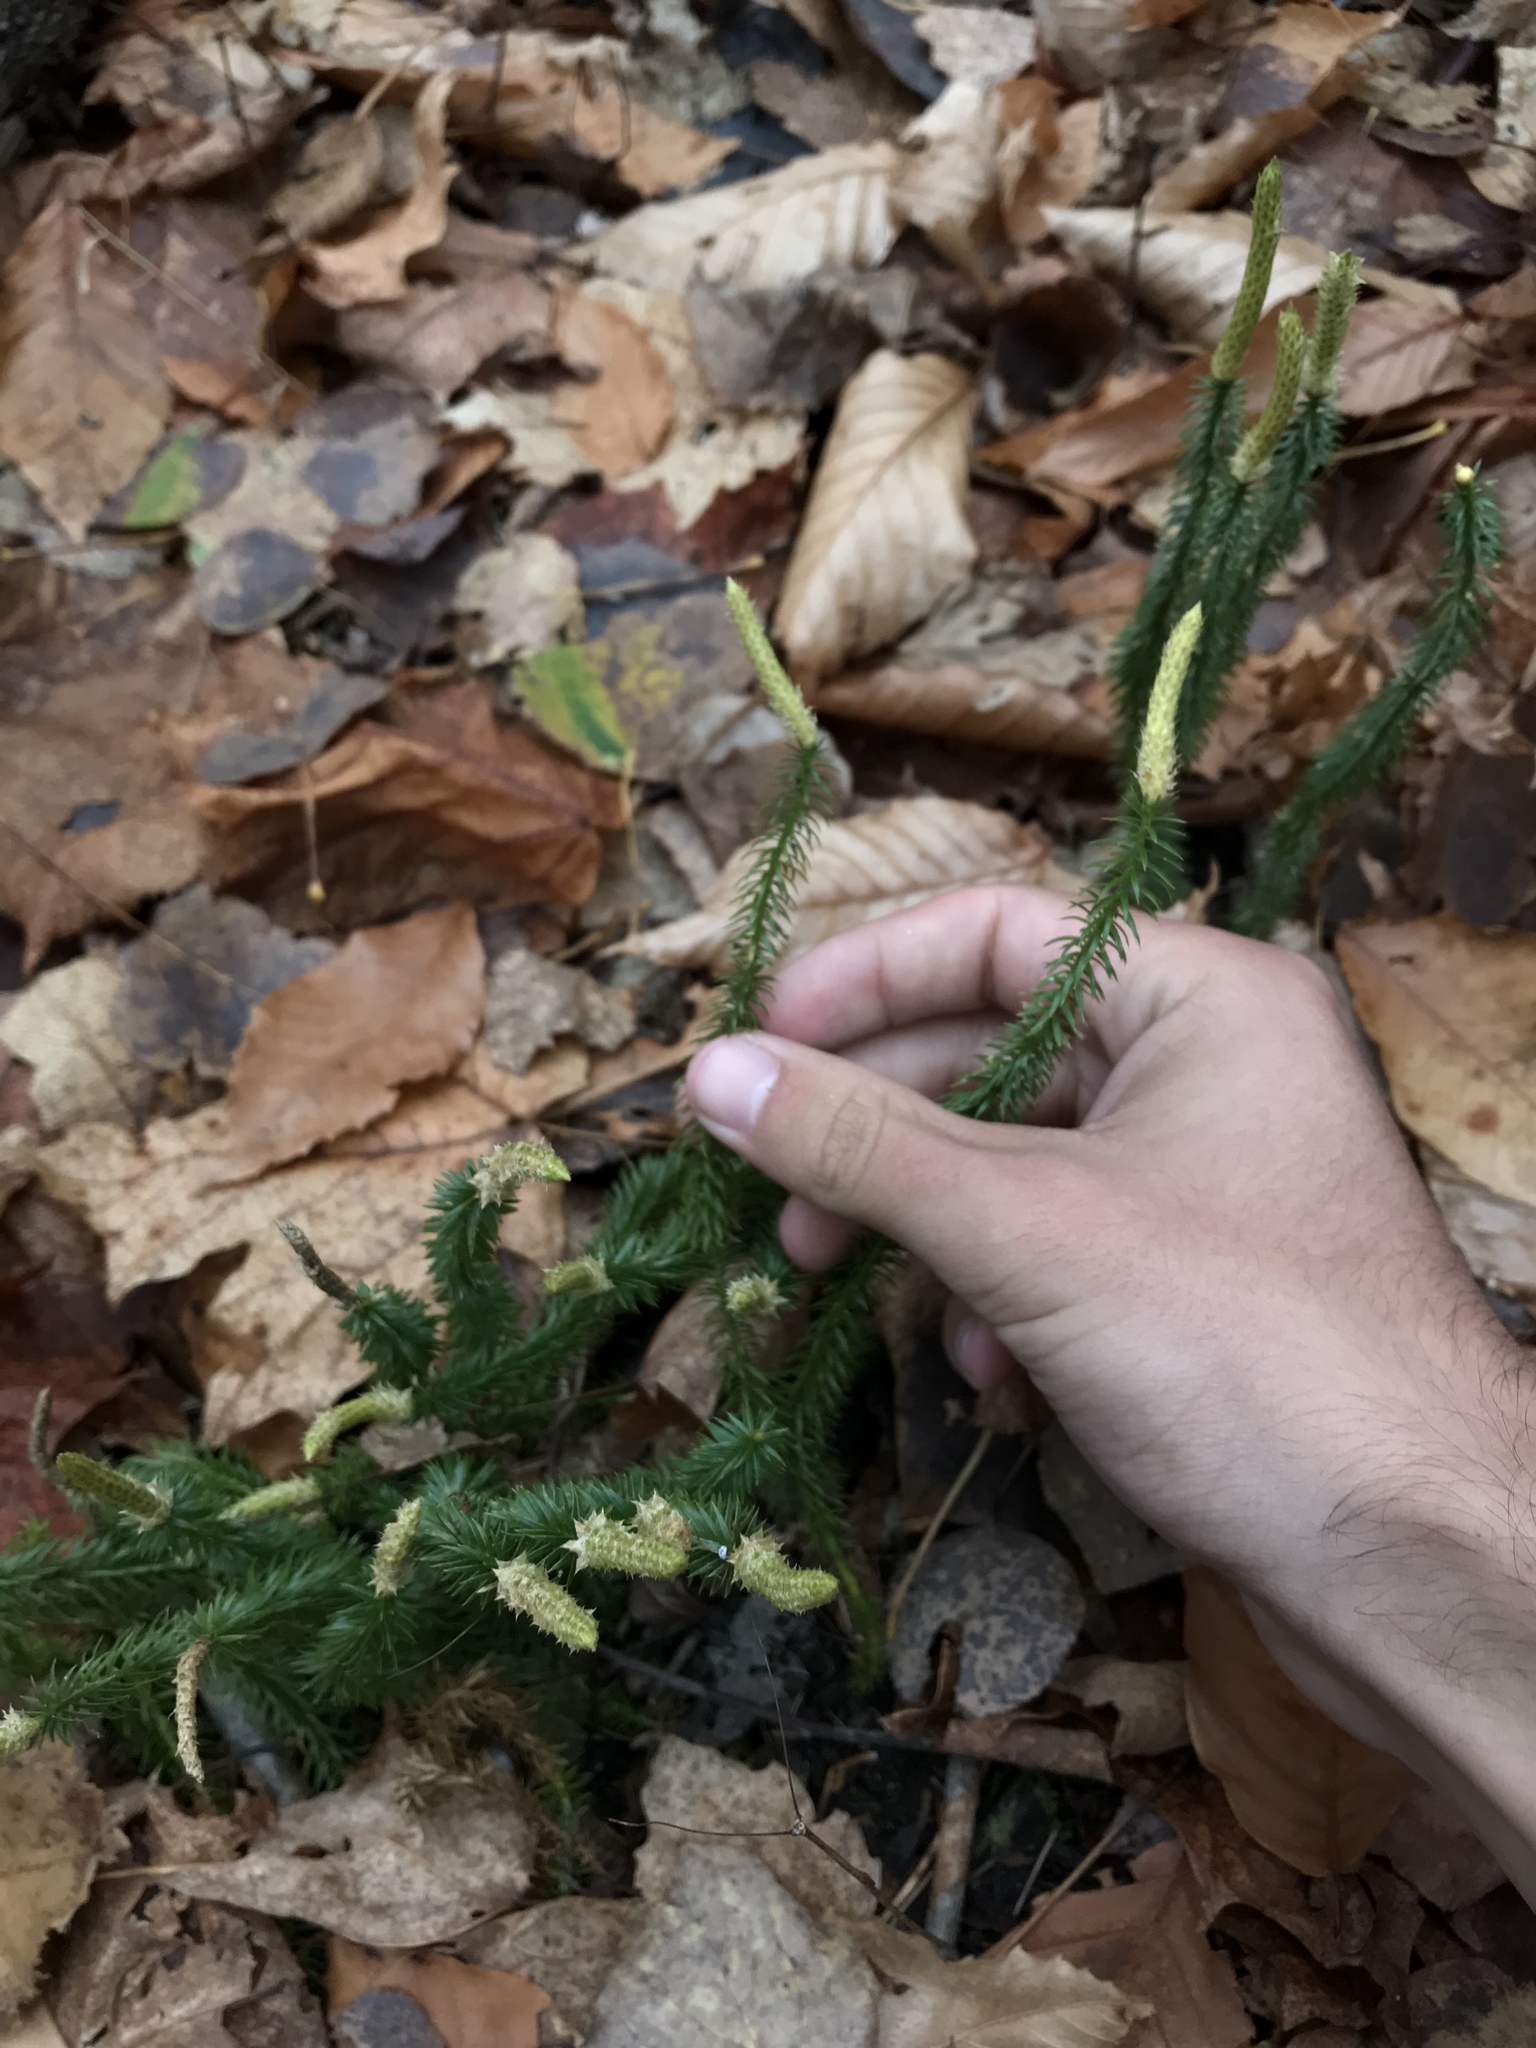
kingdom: Plantae
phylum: Tracheophyta
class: Lycopodiopsida
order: Lycopodiales
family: Lycopodiaceae
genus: Spinulum
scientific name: Spinulum annotinum
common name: Interrupted club-moss
